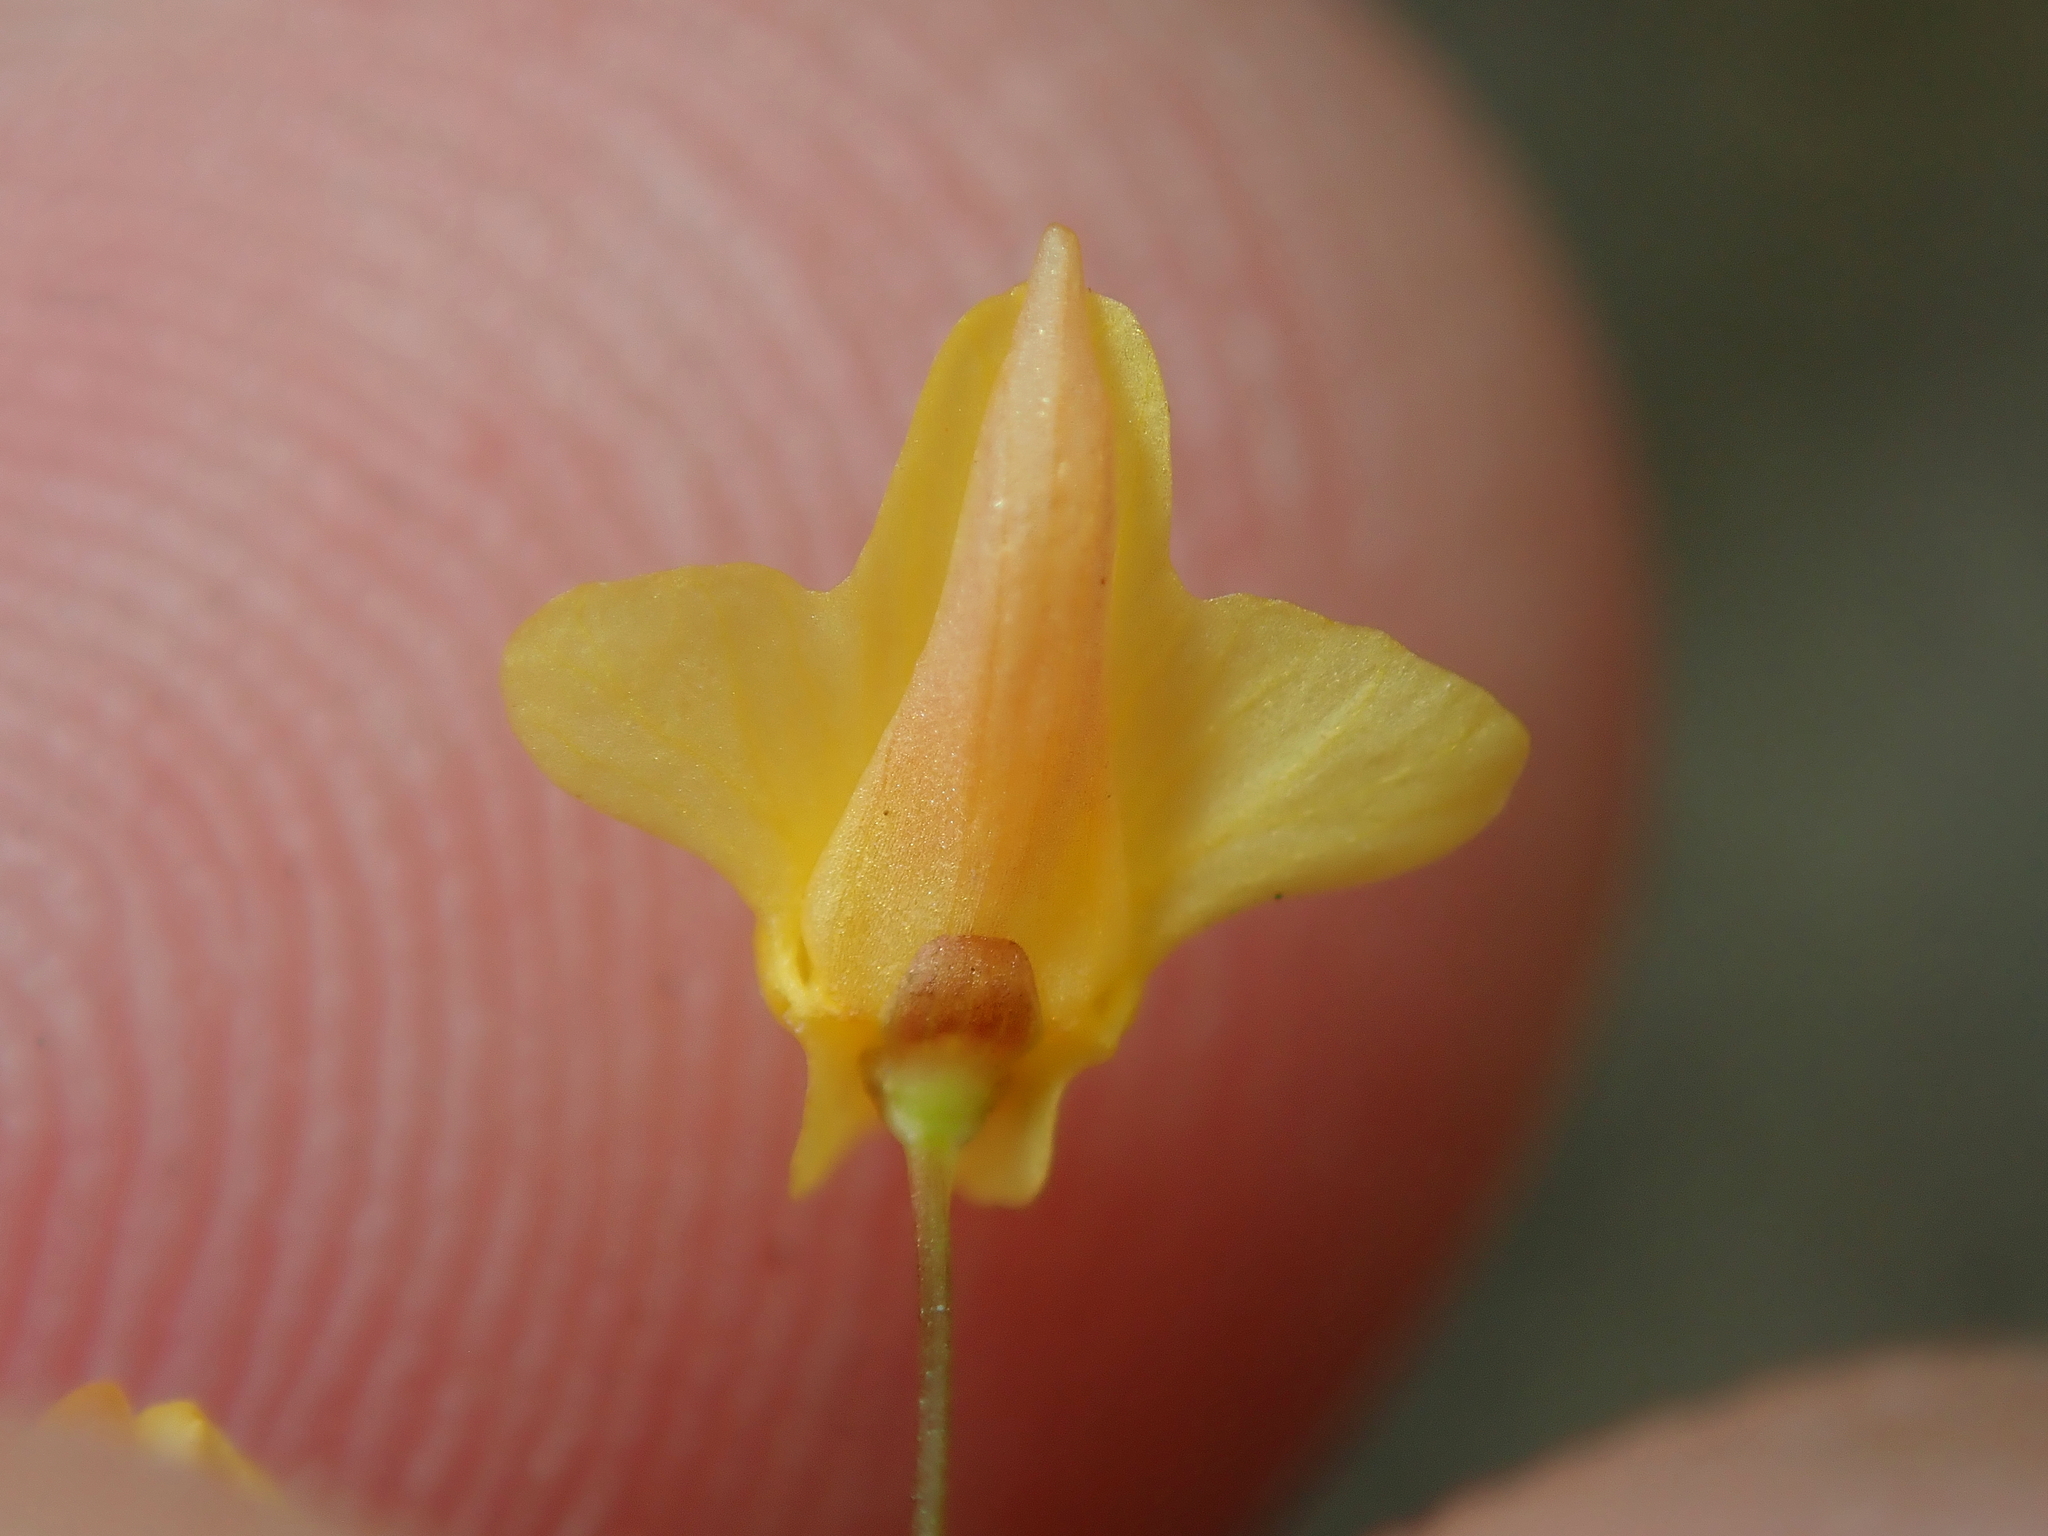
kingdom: Plantae
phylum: Tracheophyta
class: Magnoliopsida
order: Lamiales
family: Lentibulariaceae
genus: Utricularia
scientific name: Utricularia subulata
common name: Tiny bladderwort
